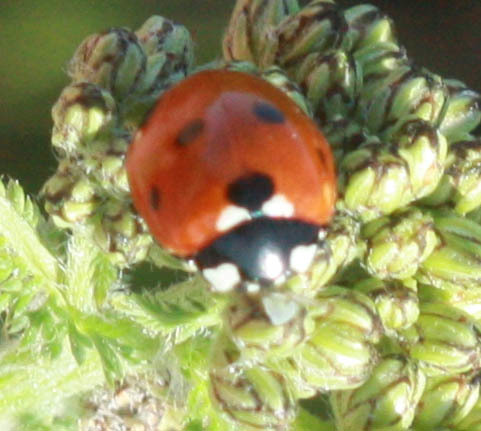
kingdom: Animalia
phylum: Arthropoda
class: Insecta
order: Coleoptera
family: Coccinellidae
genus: Coccinella
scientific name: Coccinella septempunctata
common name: Sevenspotted lady beetle
